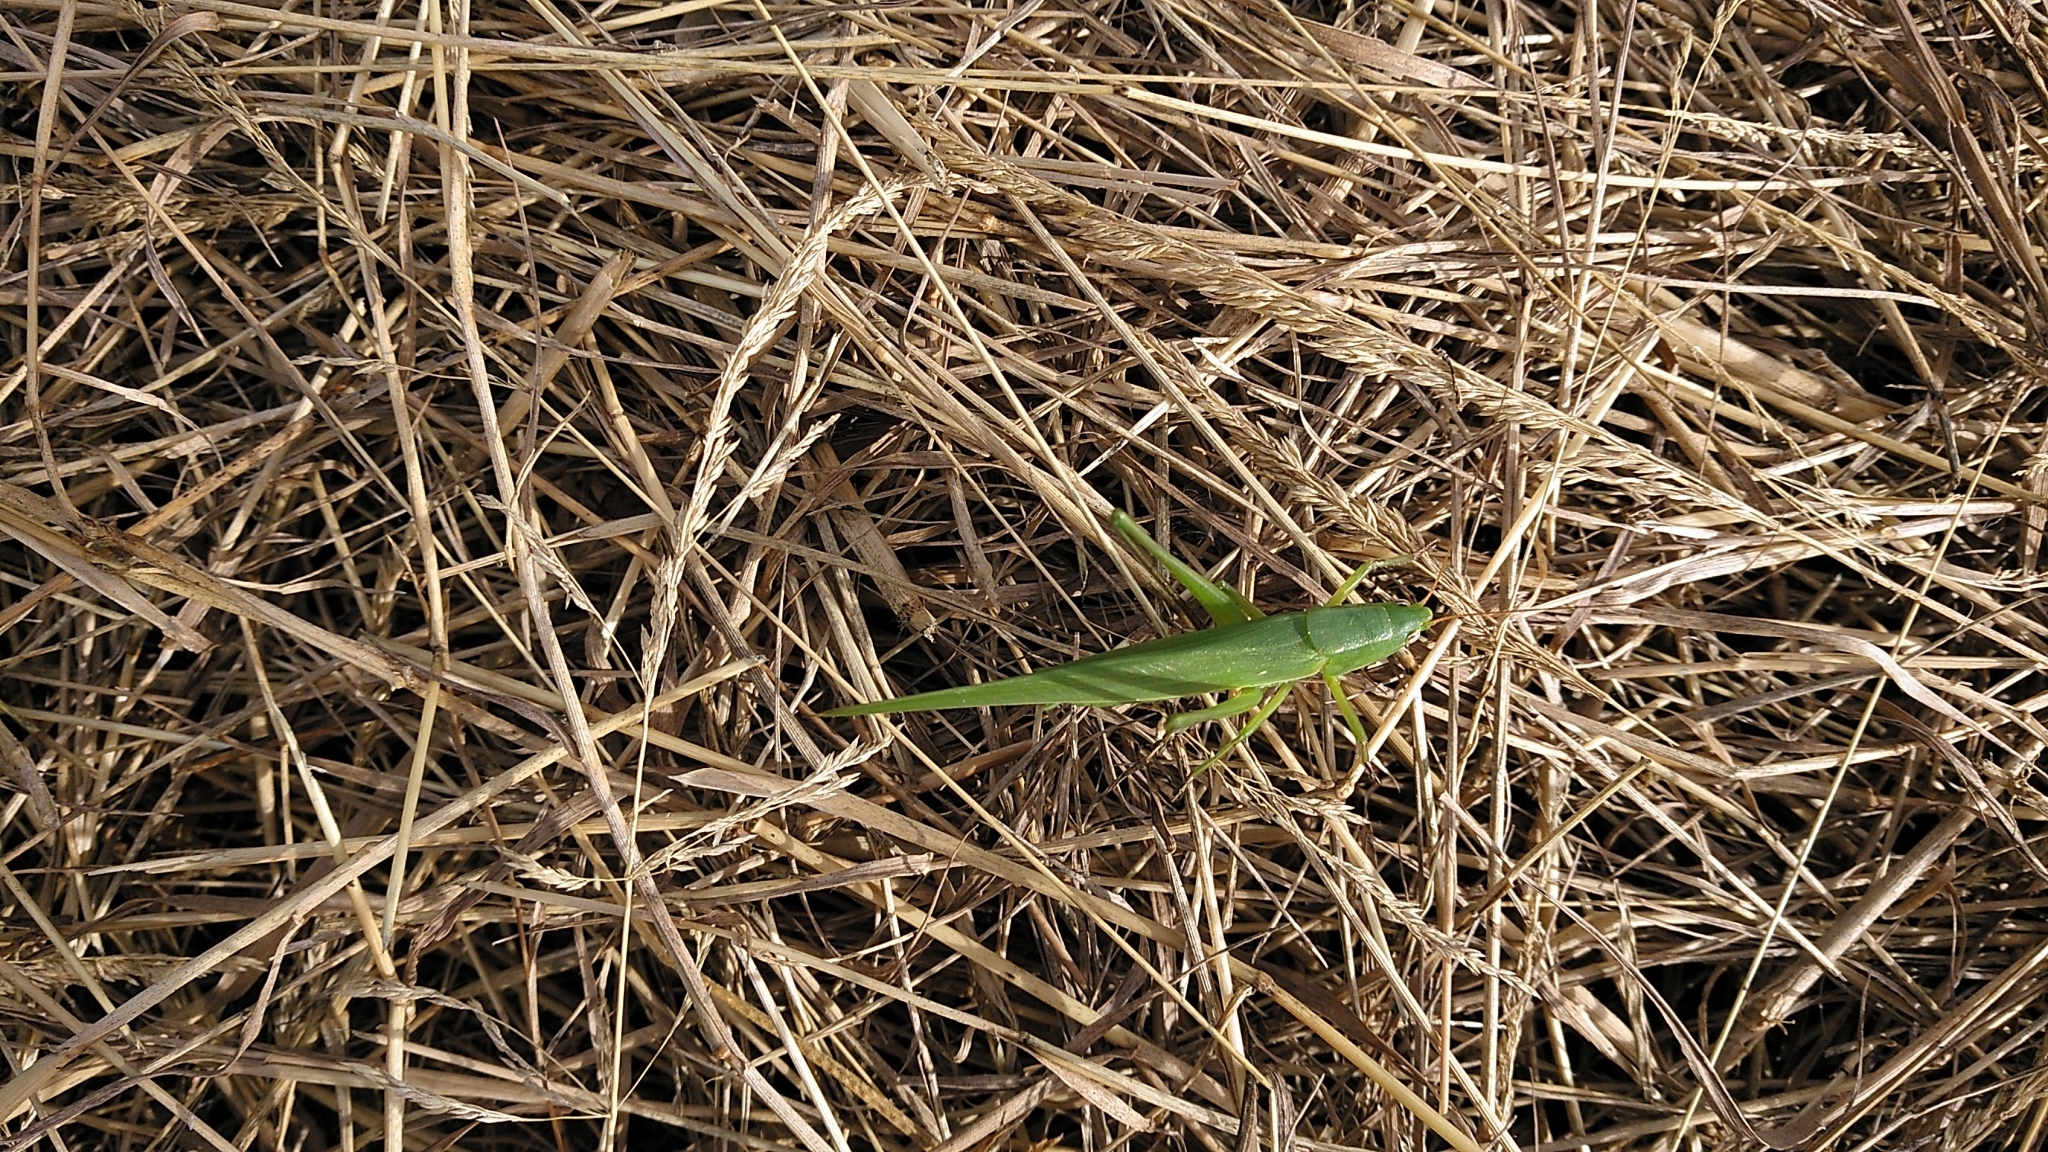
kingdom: Animalia
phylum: Arthropoda
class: Insecta
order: Orthoptera
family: Tettigoniidae
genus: Ruspolia
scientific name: Ruspolia nitidula
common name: Large conehead
